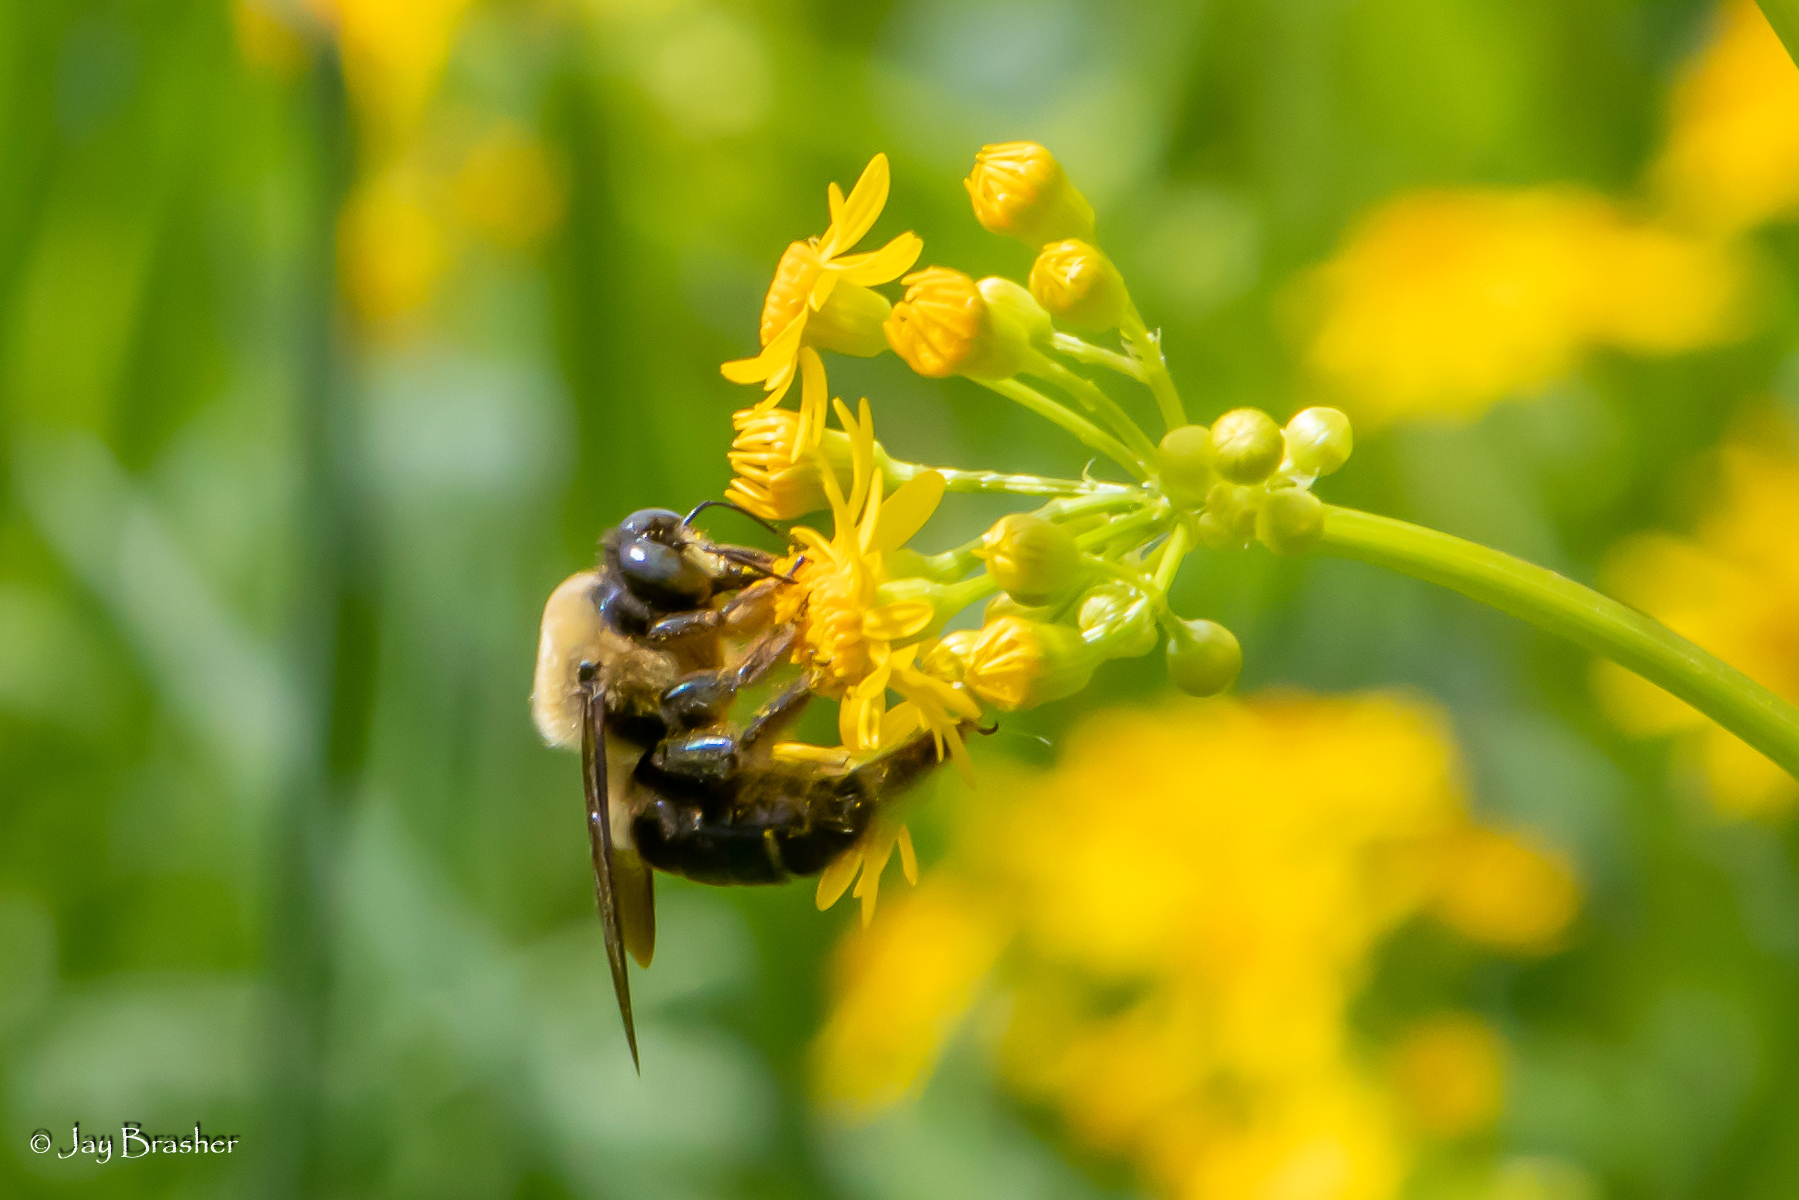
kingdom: Animalia
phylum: Arthropoda
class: Insecta
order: Hymenoptera
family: Apidae
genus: Xylocopa
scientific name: Xylocopa virginica
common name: Carpenter bee
